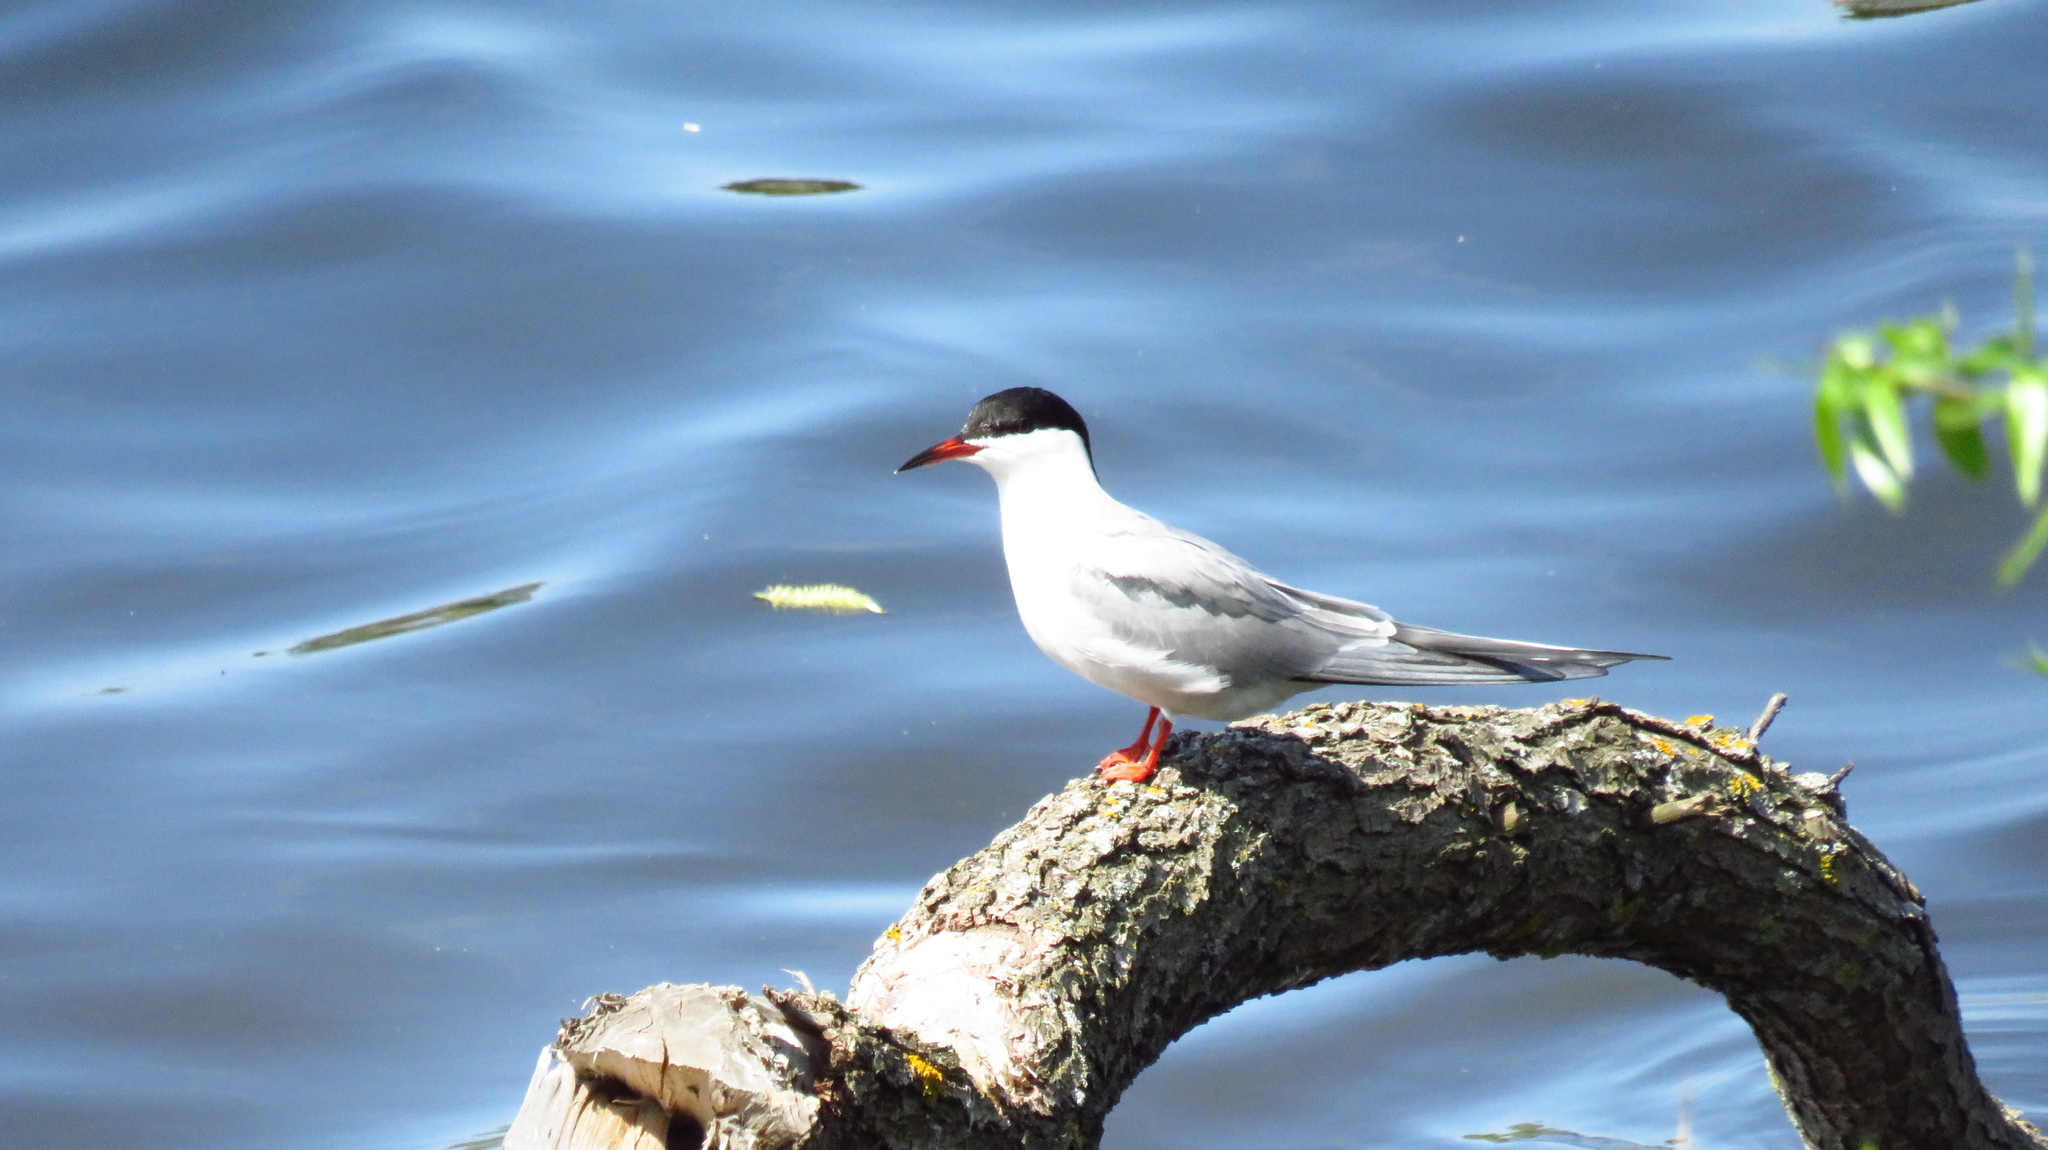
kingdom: Animalia
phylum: Chordata
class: Aves
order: Charadriiformes
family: Laridae
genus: Sterna
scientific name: Sterna hirundo
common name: Common tern
